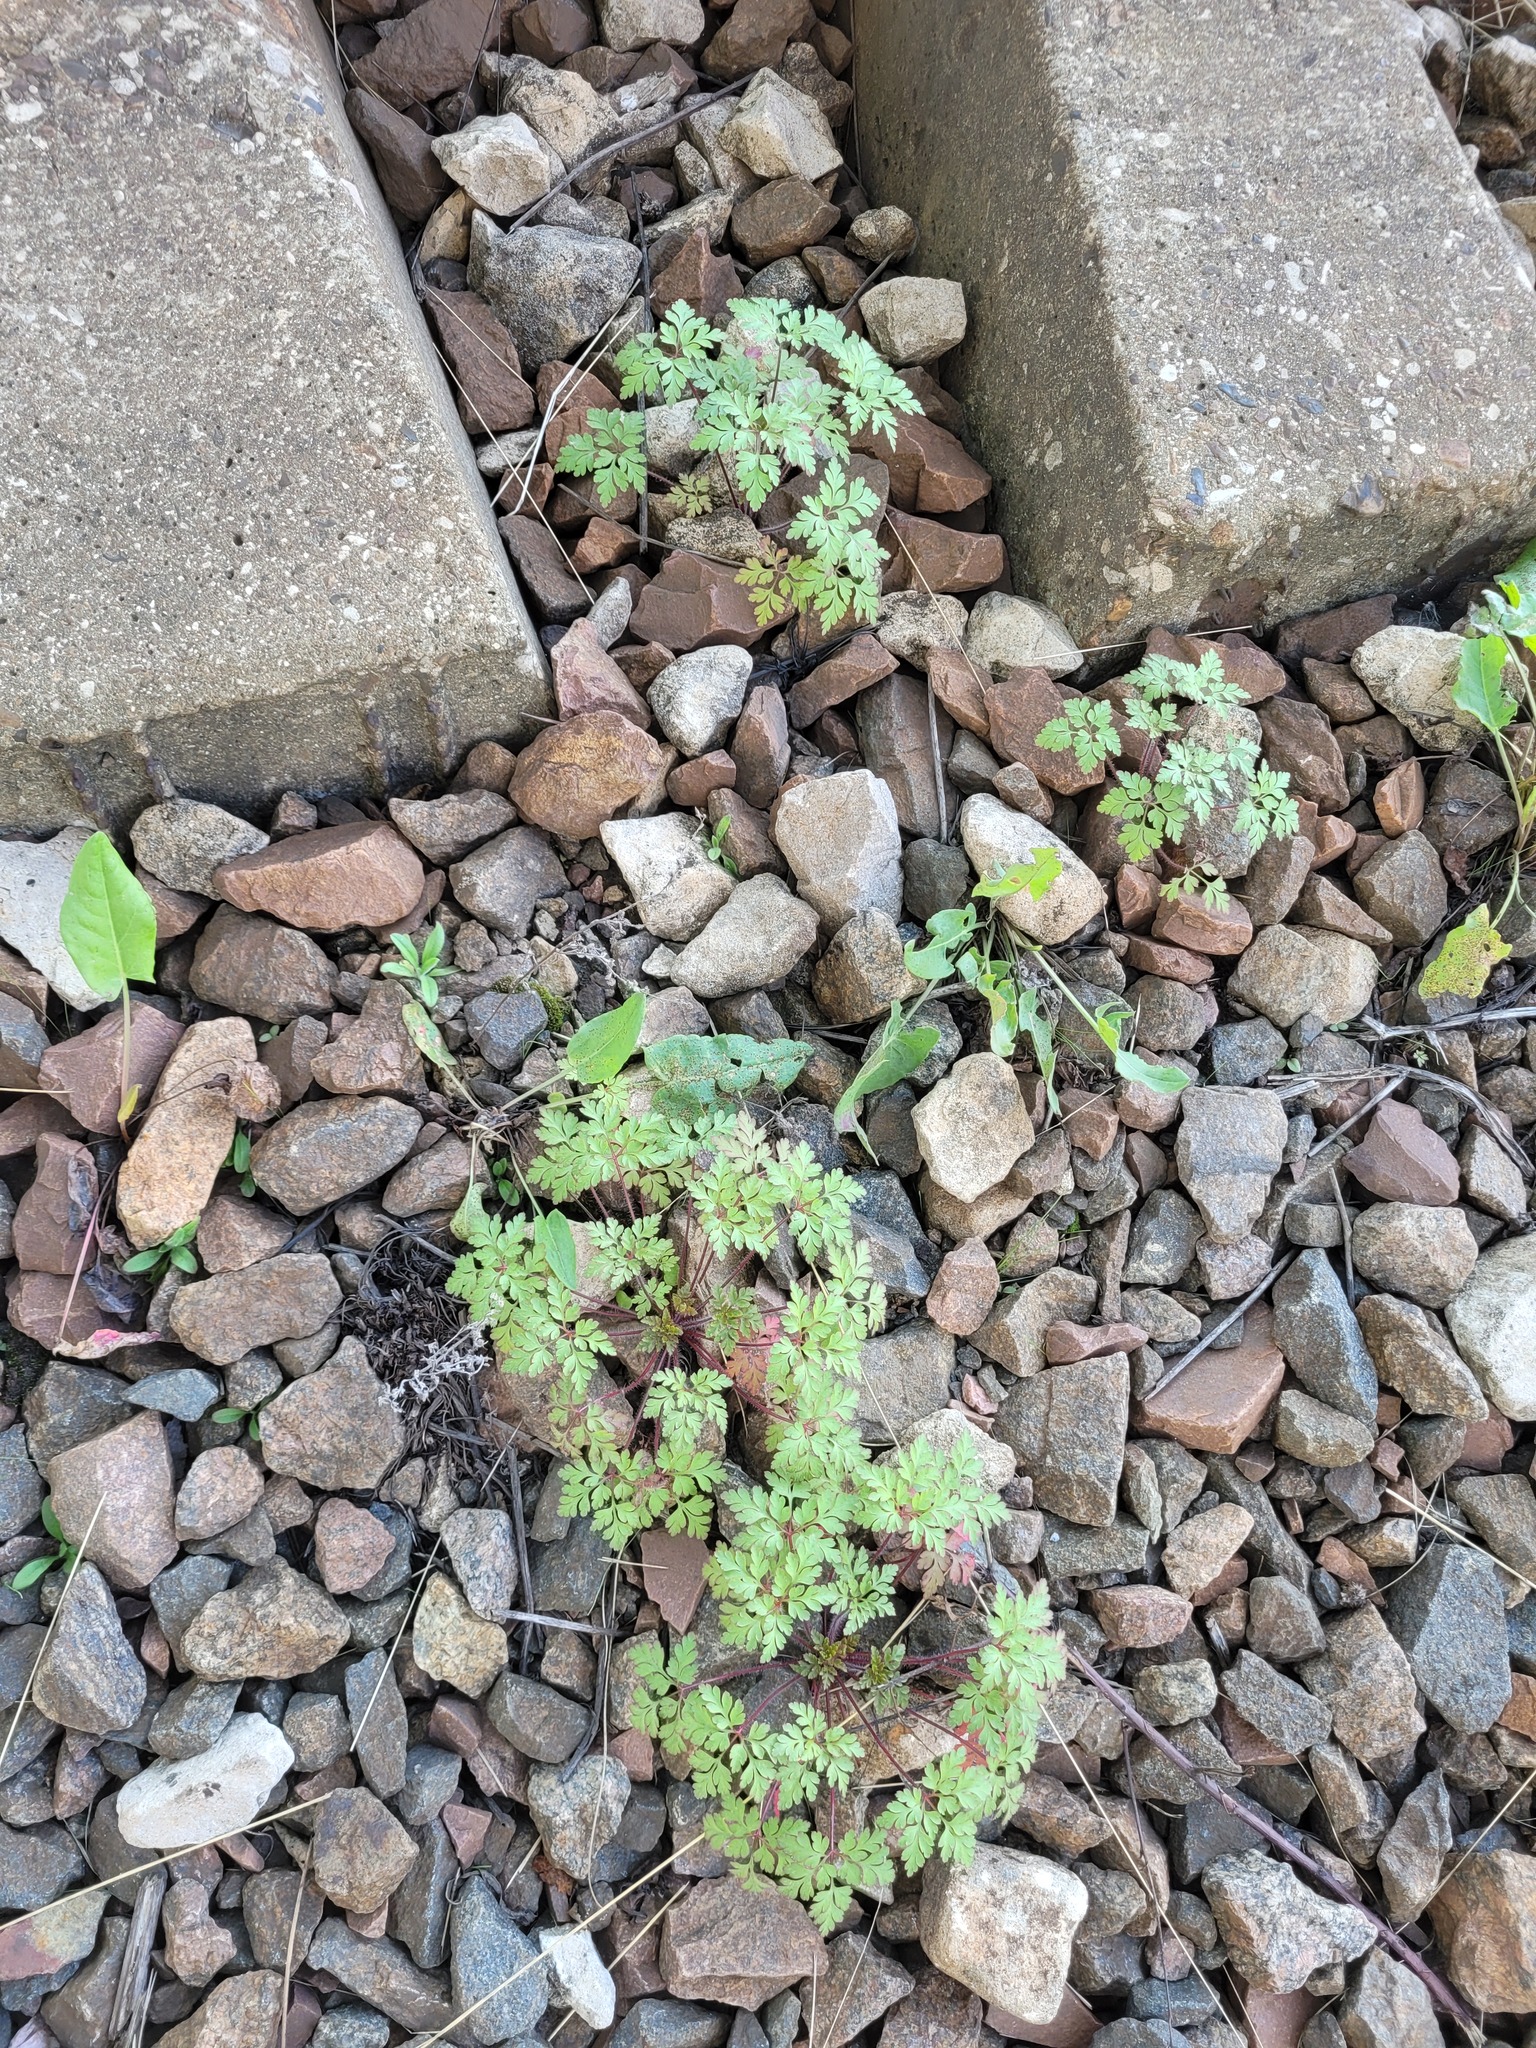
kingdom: Plantae
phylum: Tracheophyta
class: Magnoliopsida
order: Geraniales
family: Geraniaceae
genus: Geranium
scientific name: Geranium robertianum
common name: Herb-robert
